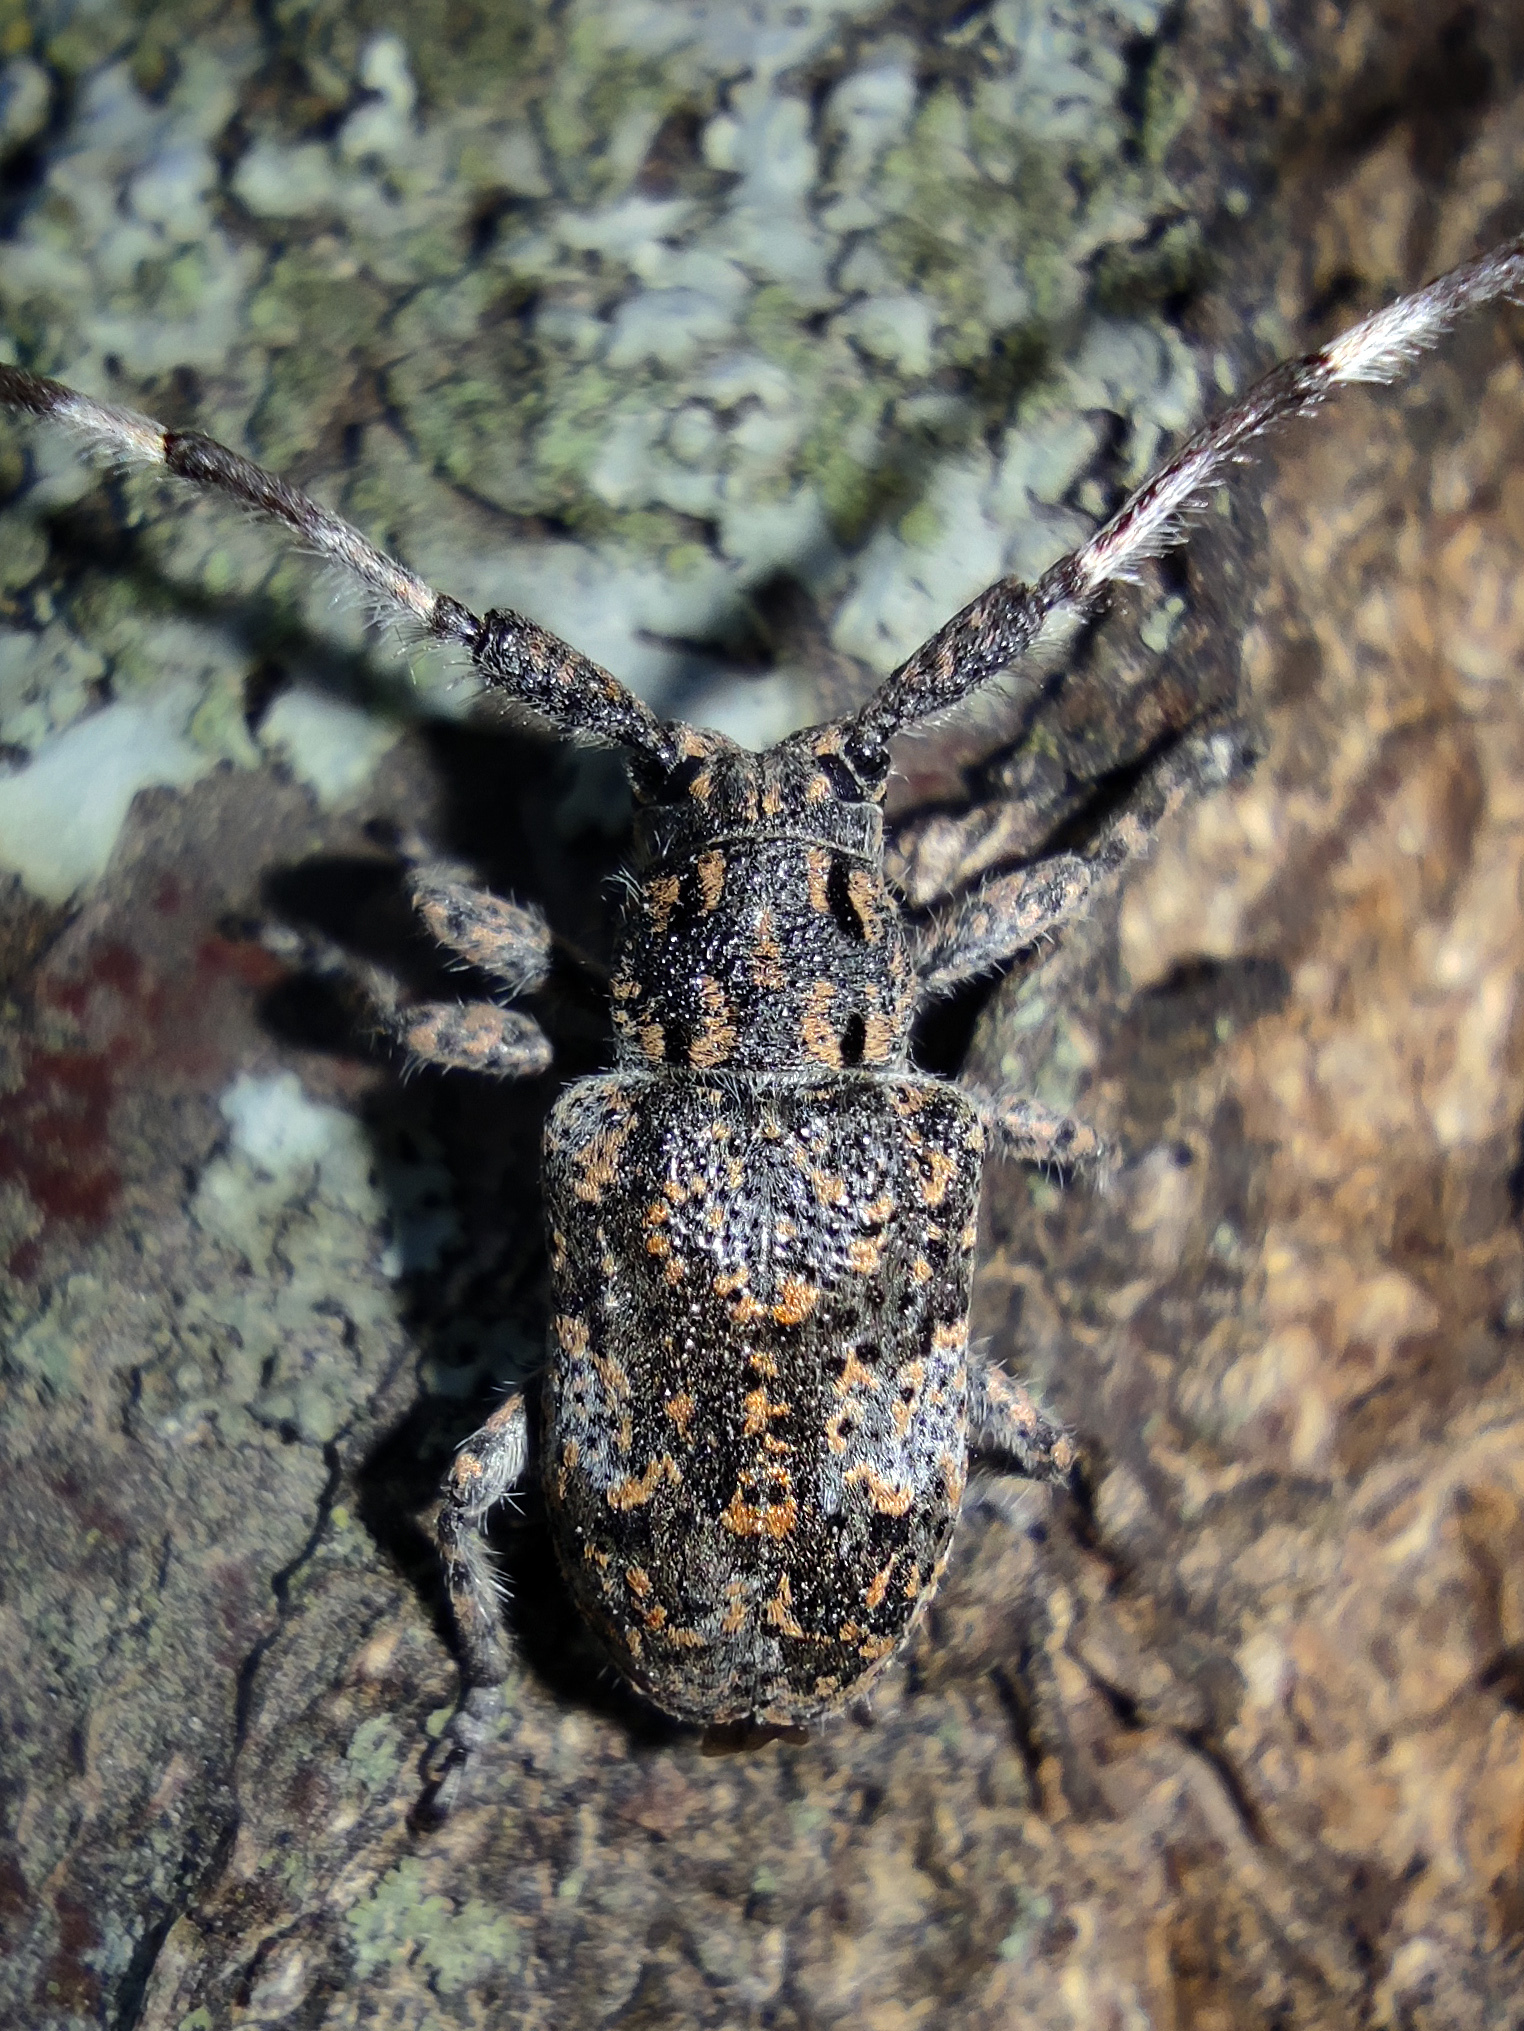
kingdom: Animalia
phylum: Arthropoda
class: Insecta
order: Coleoptera
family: Cerambycidae
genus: Mesosa
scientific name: Mesosa myops
